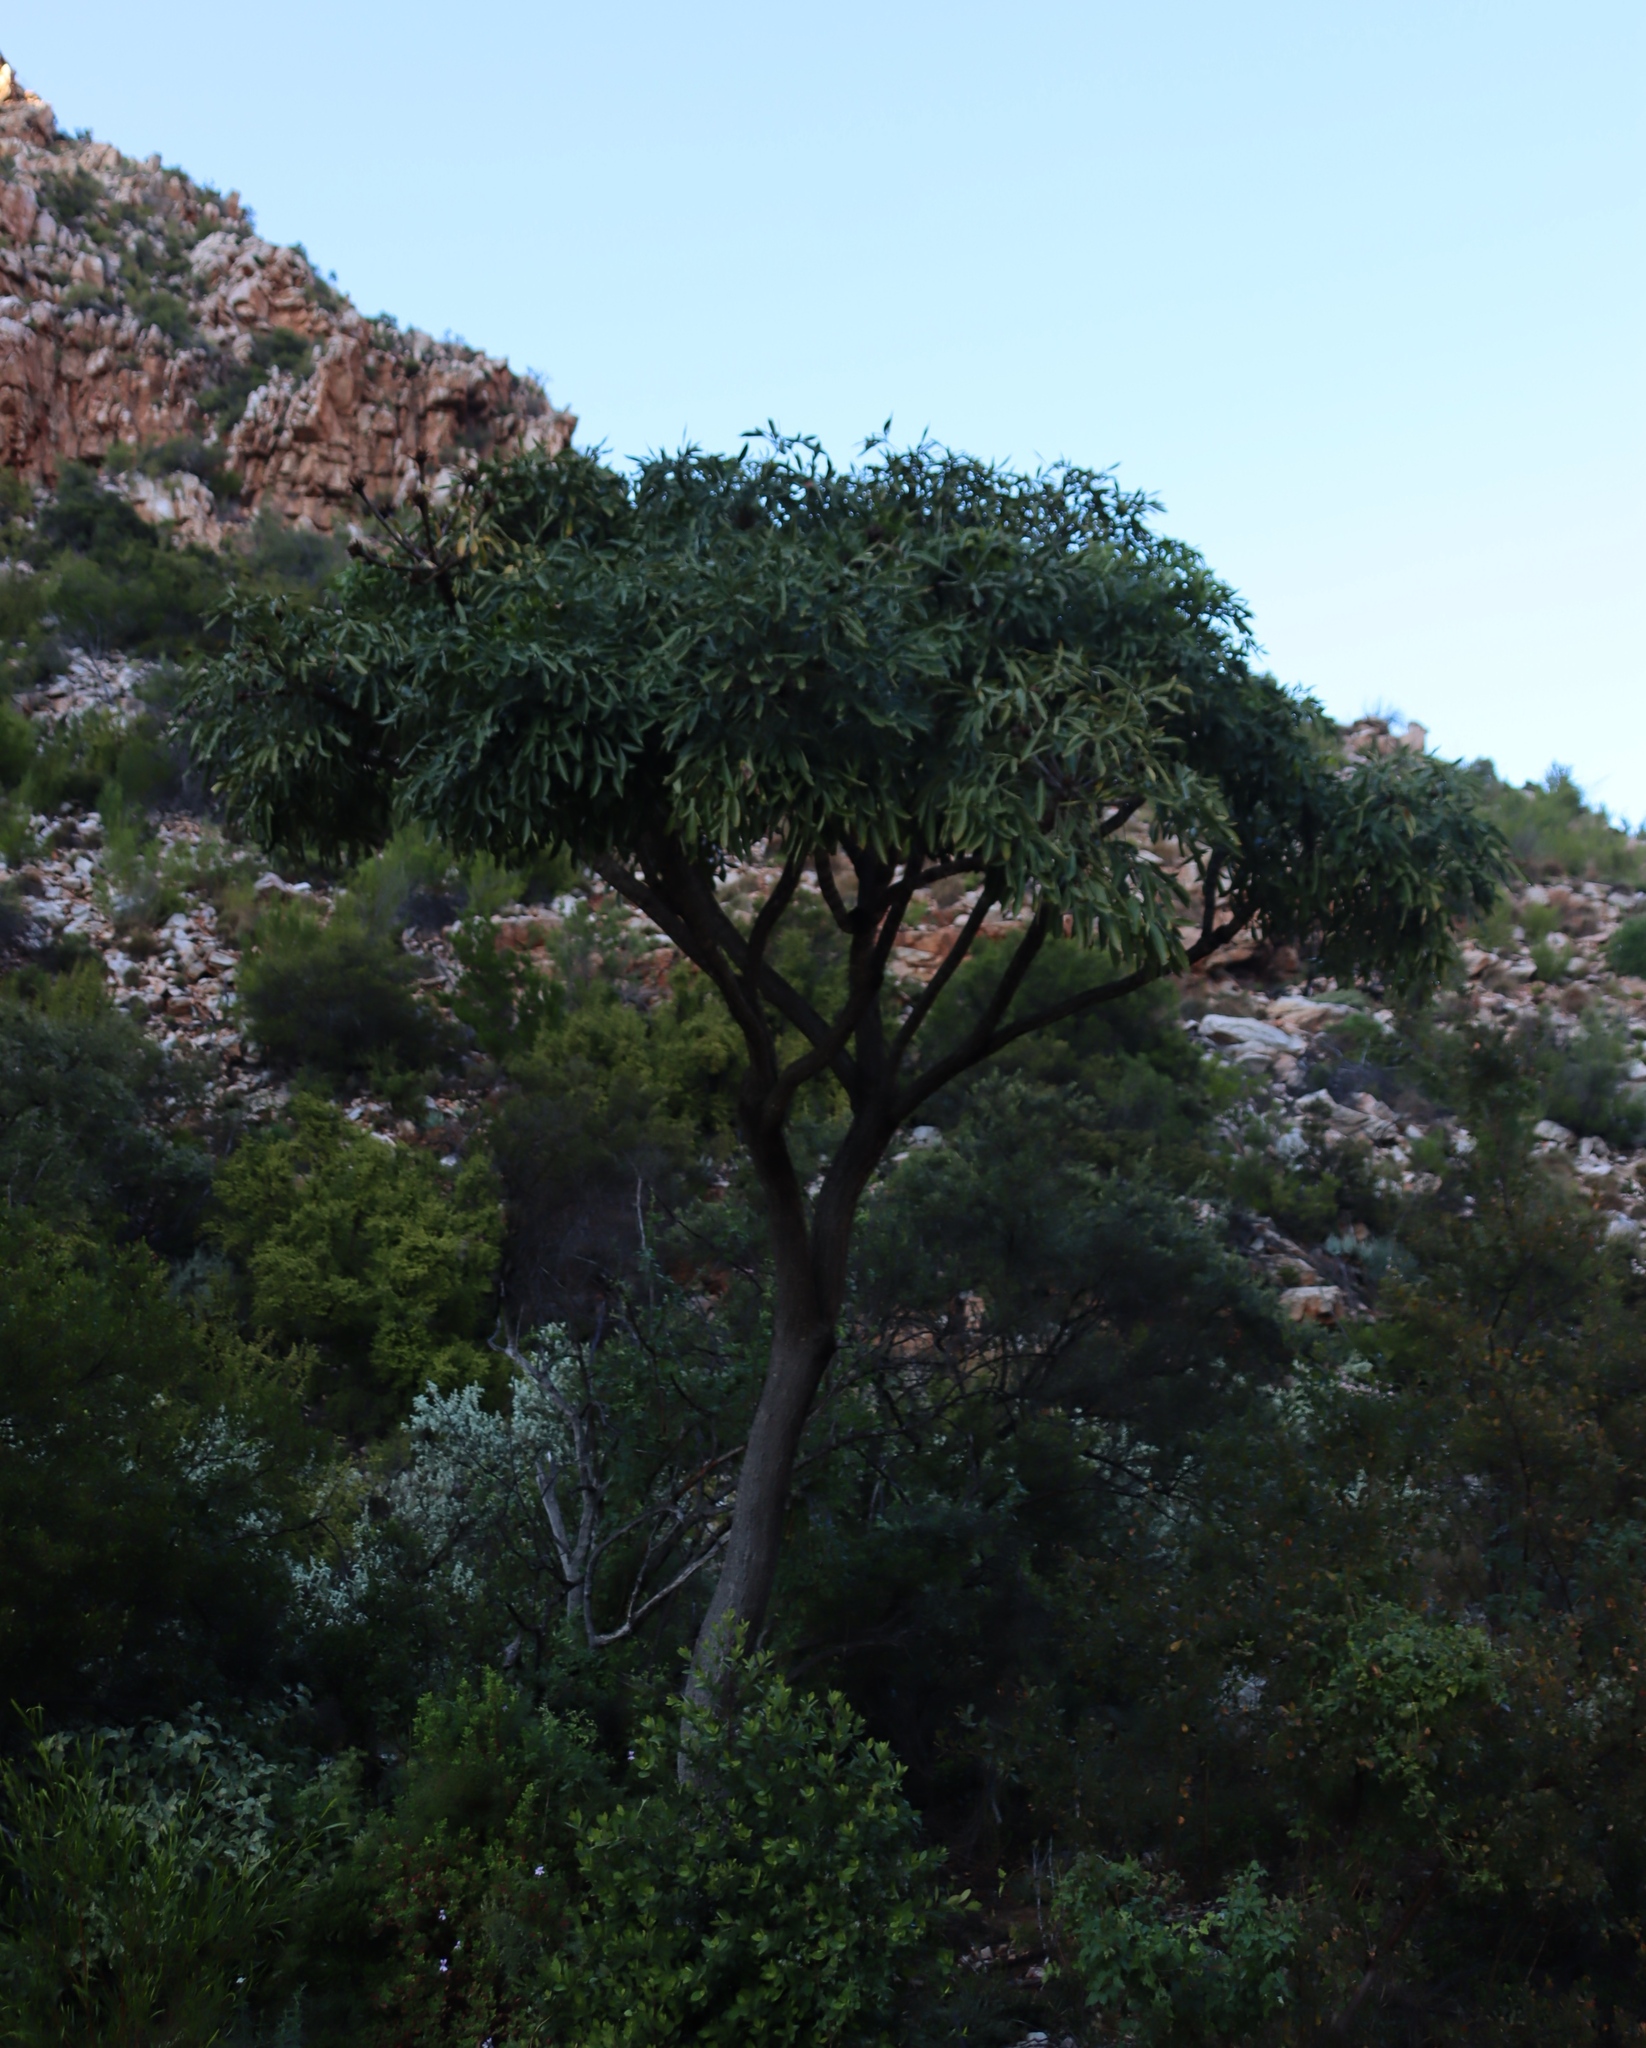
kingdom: Plantae
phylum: Tracheophyta
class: Magnoliopsida
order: Apiales
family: Araliaceae
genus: Cussonia
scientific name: Cussonia spicata
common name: Common cabbagetree
